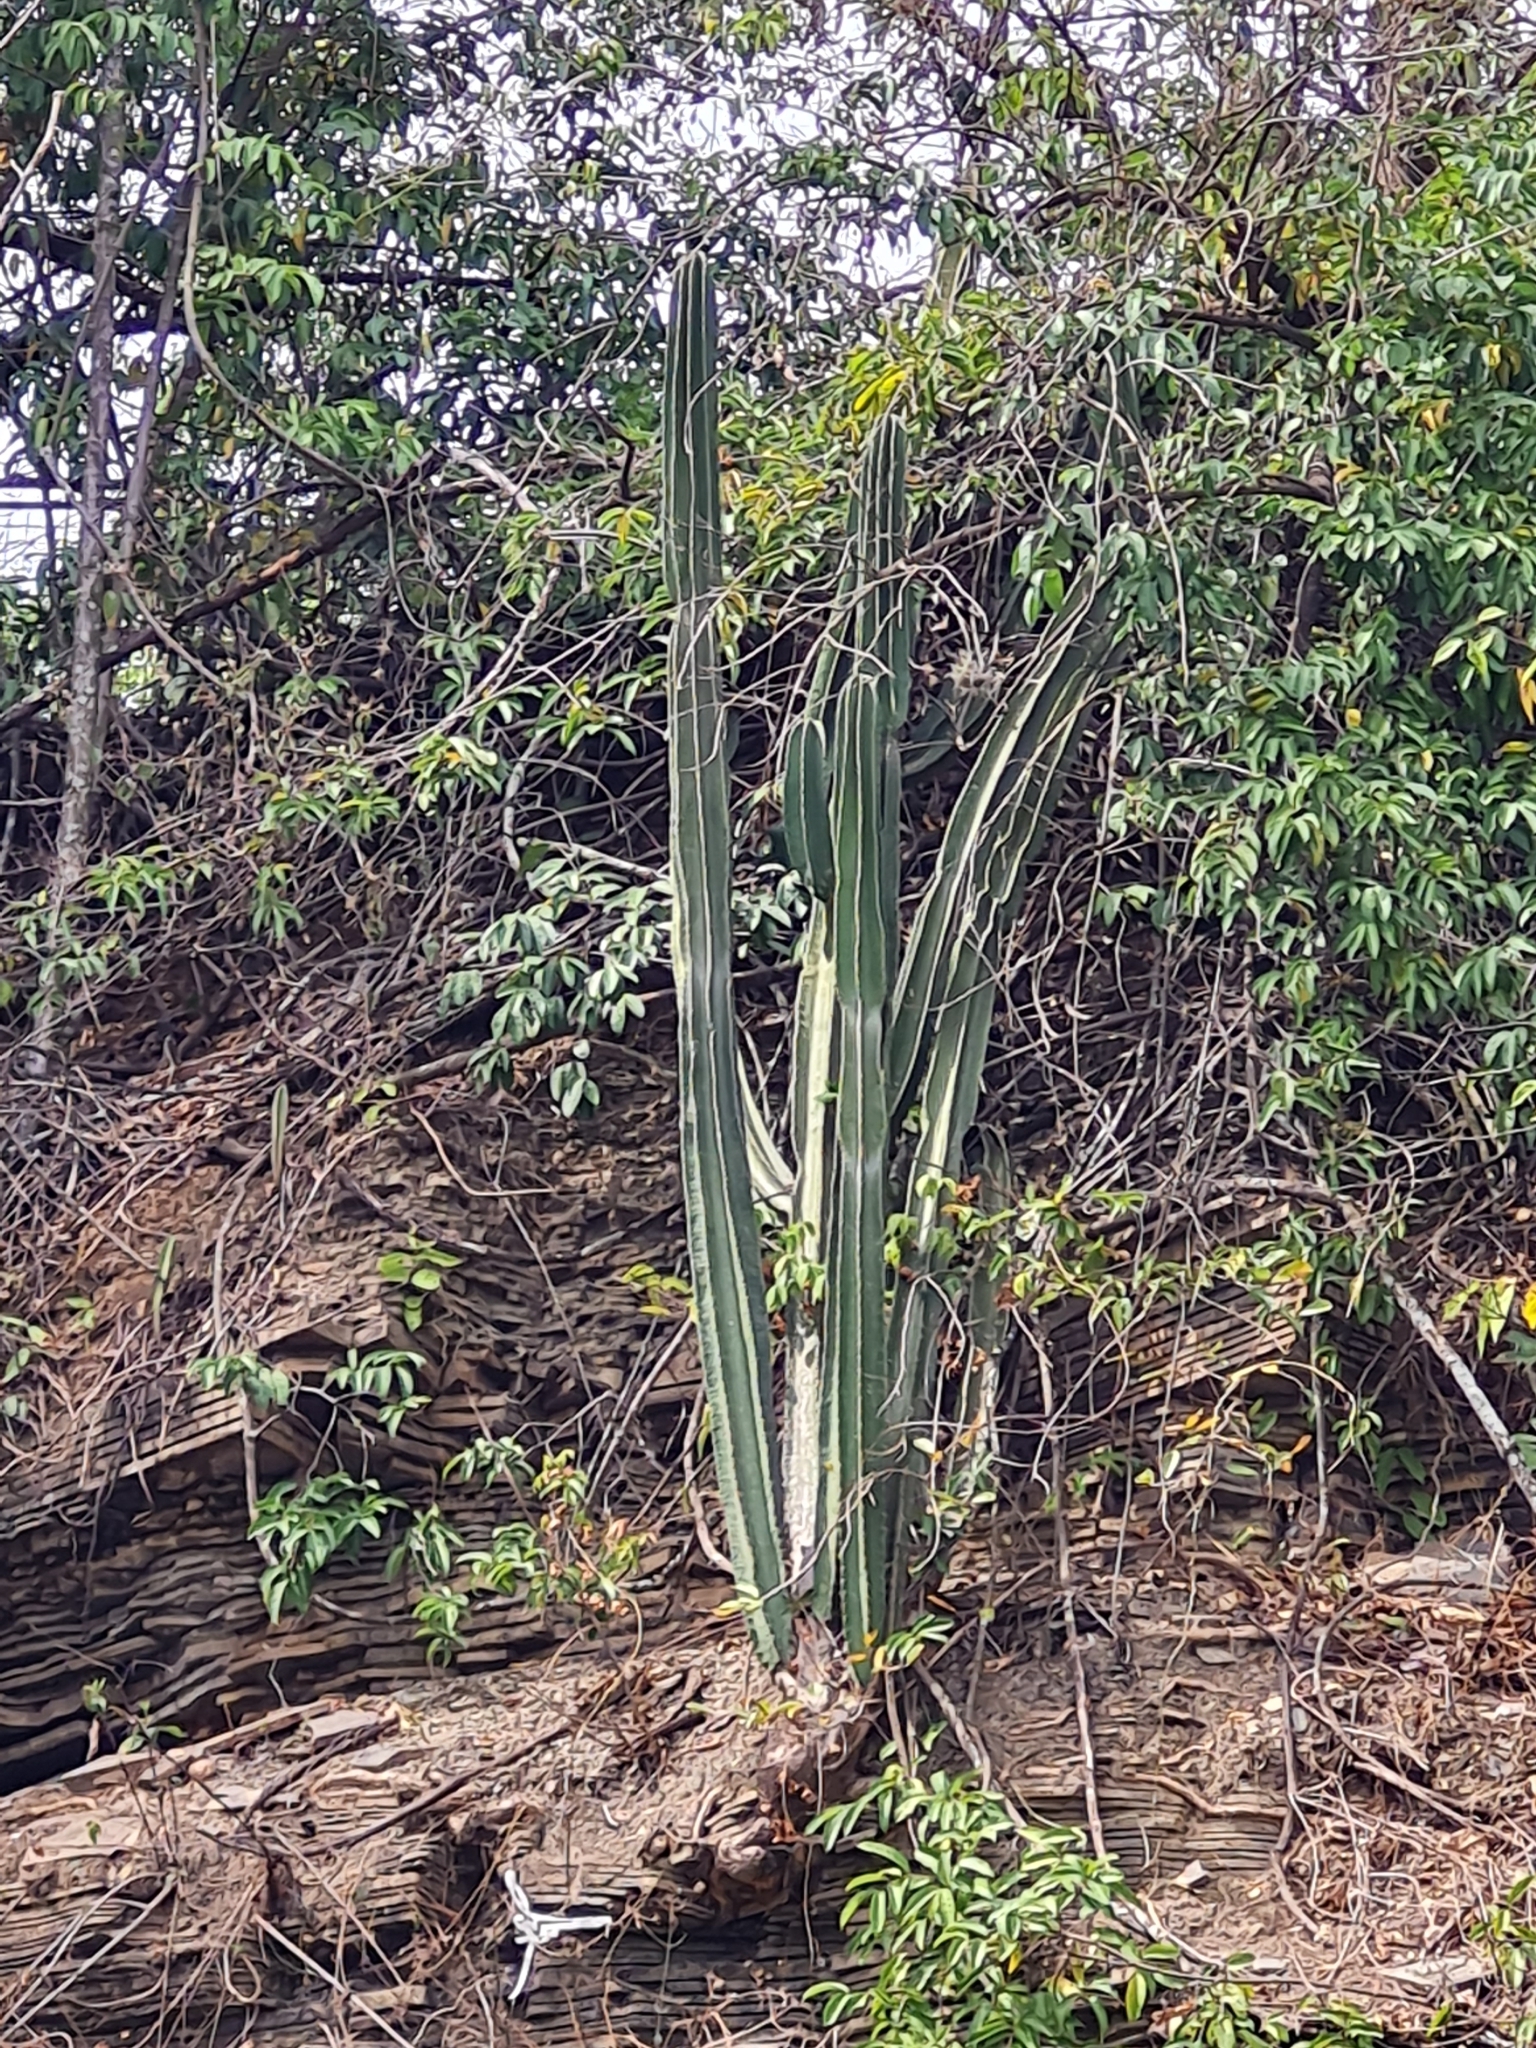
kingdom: Plantae
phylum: Tracheophyta
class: Magnoliopsida
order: Caryophyllales
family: Cactaceae
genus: Cereus
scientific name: Cereus hildmannianus
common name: Hedge cactus
